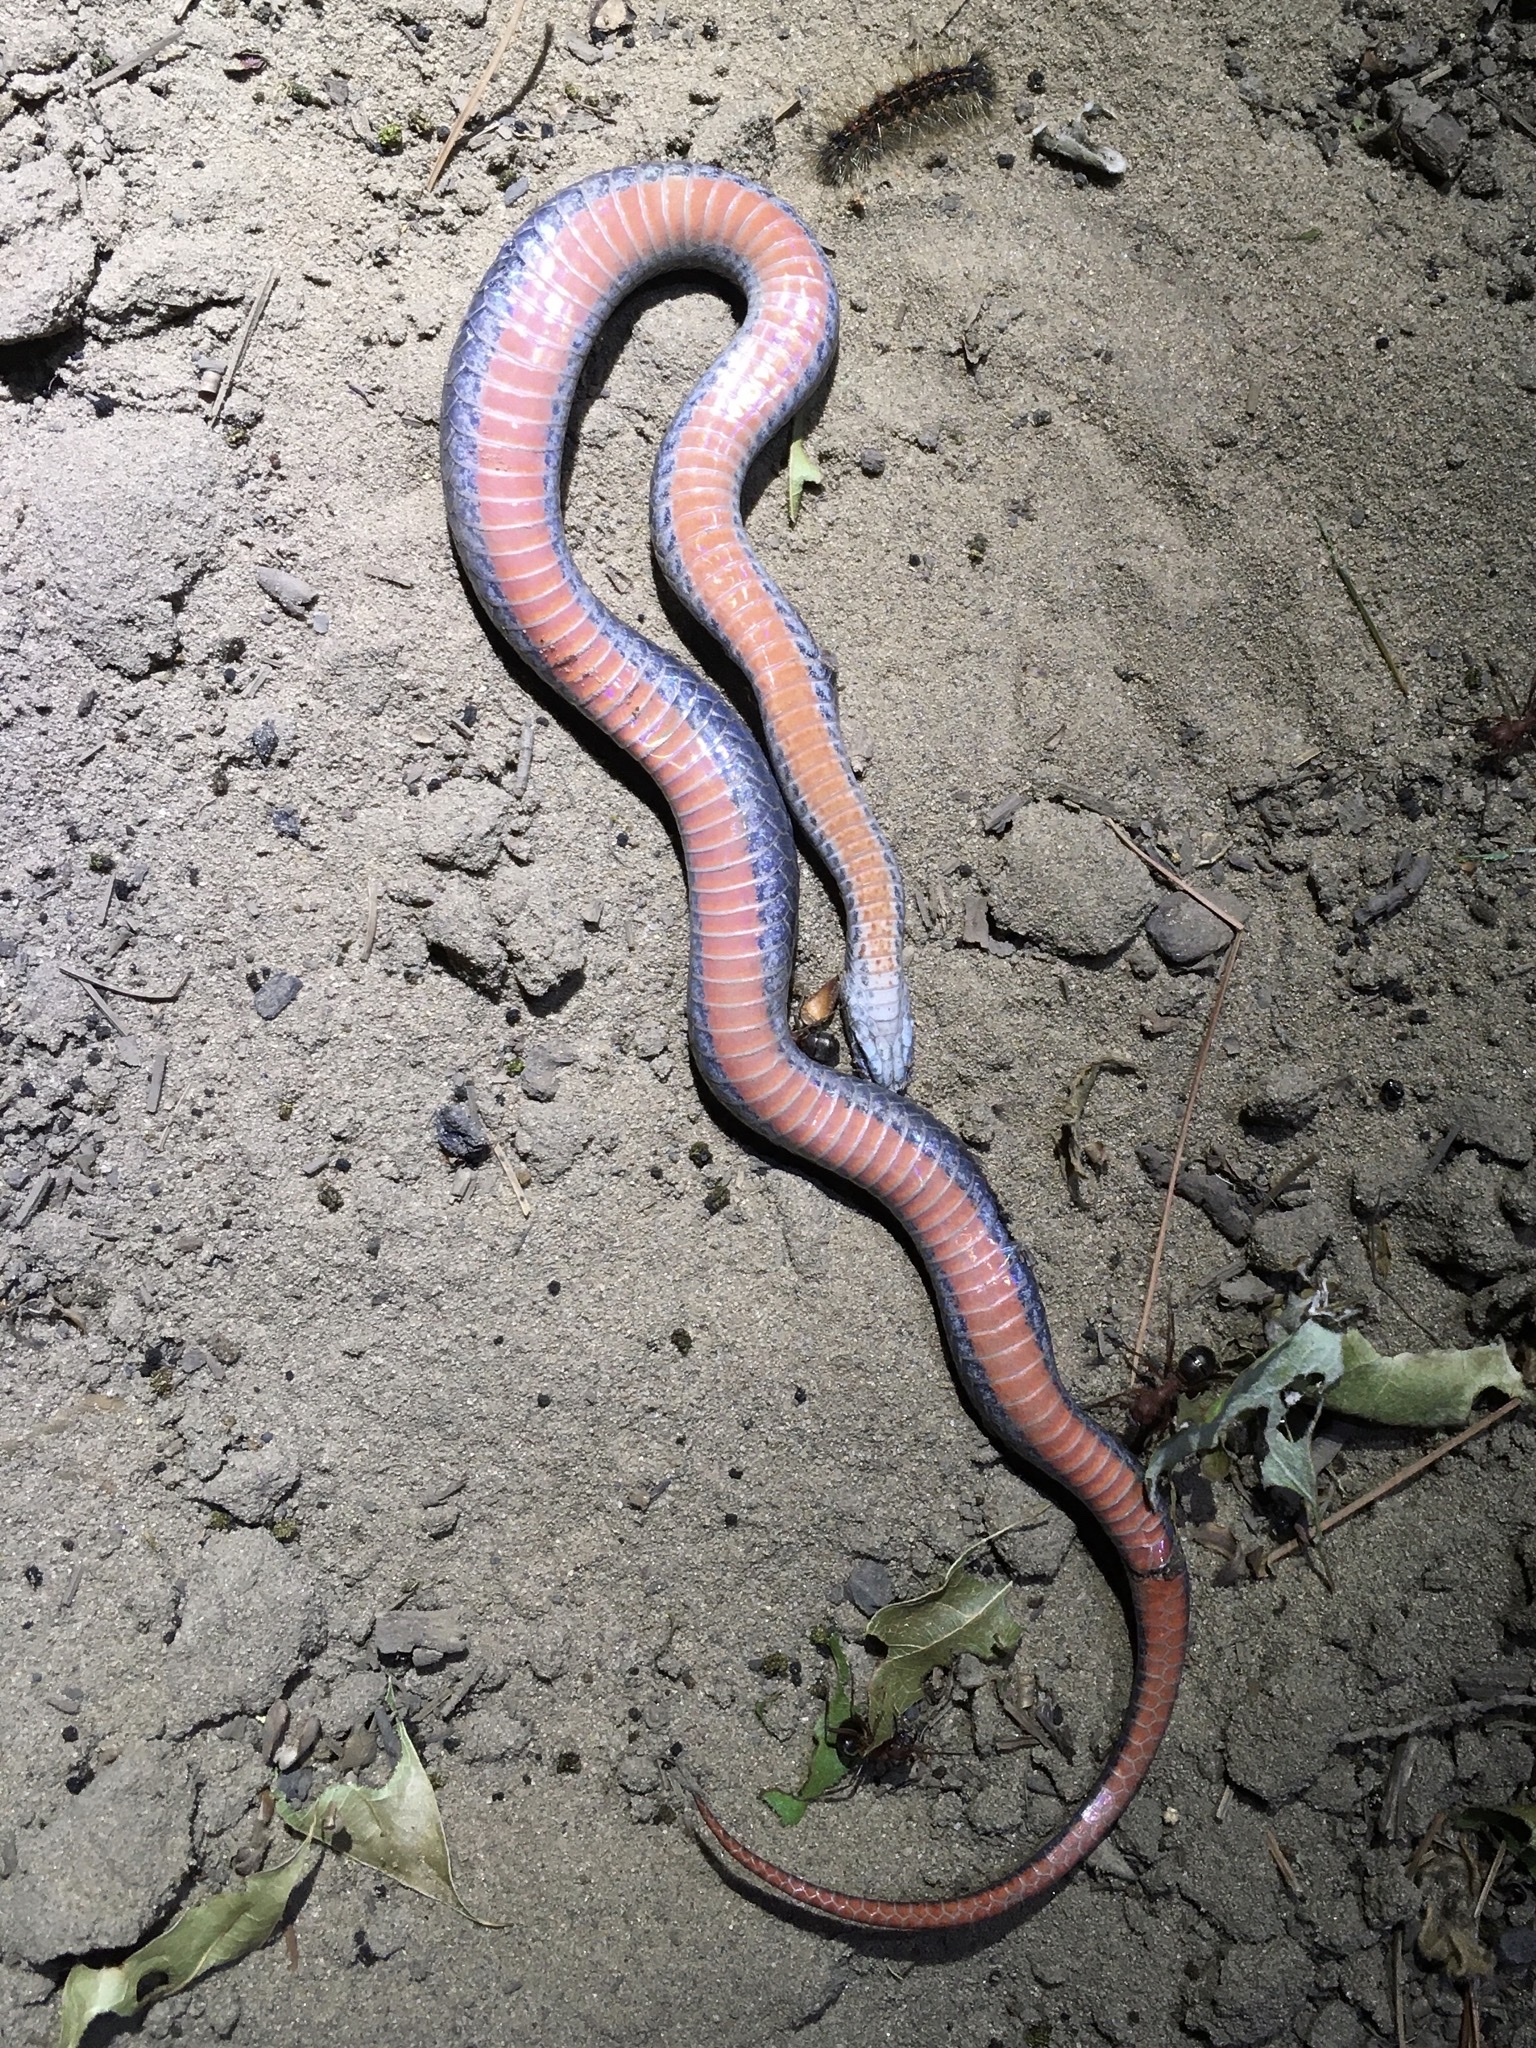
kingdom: Animalia
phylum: Chordata
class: Squamata
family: Colubridae
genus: Storeria
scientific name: Storeria occipitomaculata
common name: Redbelly snake
